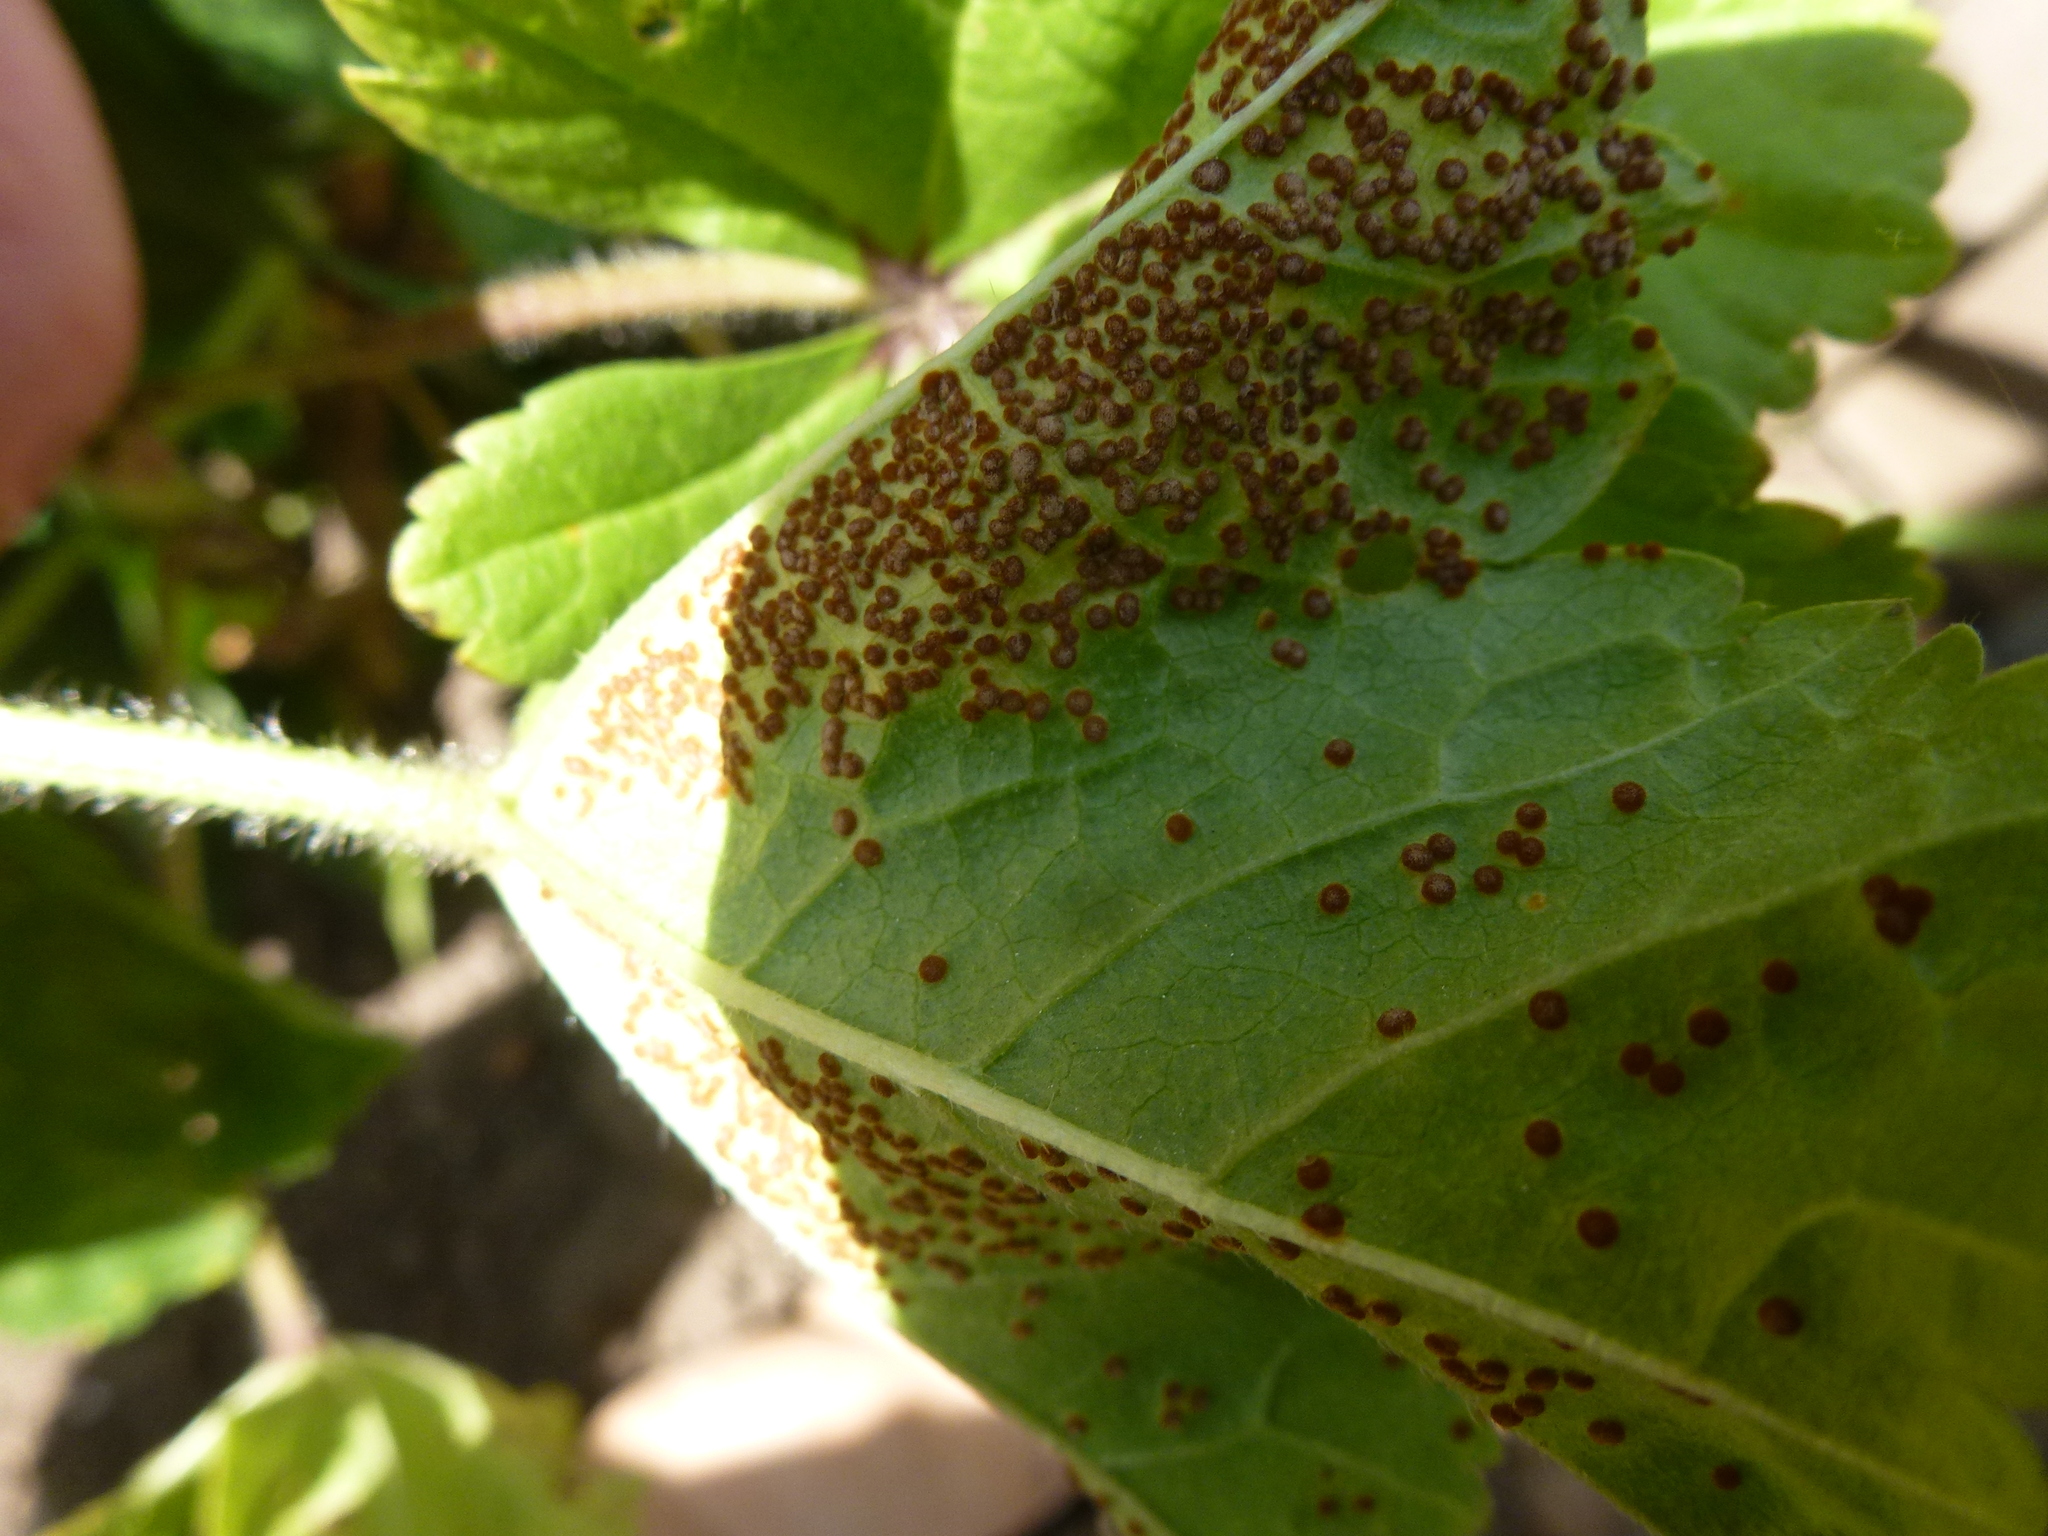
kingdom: Fungi
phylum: Basidiomycota
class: Pucciniomycetes
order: Pucciniales
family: Pucciniaceae
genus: Puccinia
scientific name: Puccinia malvacearum
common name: Hollyhock rust
